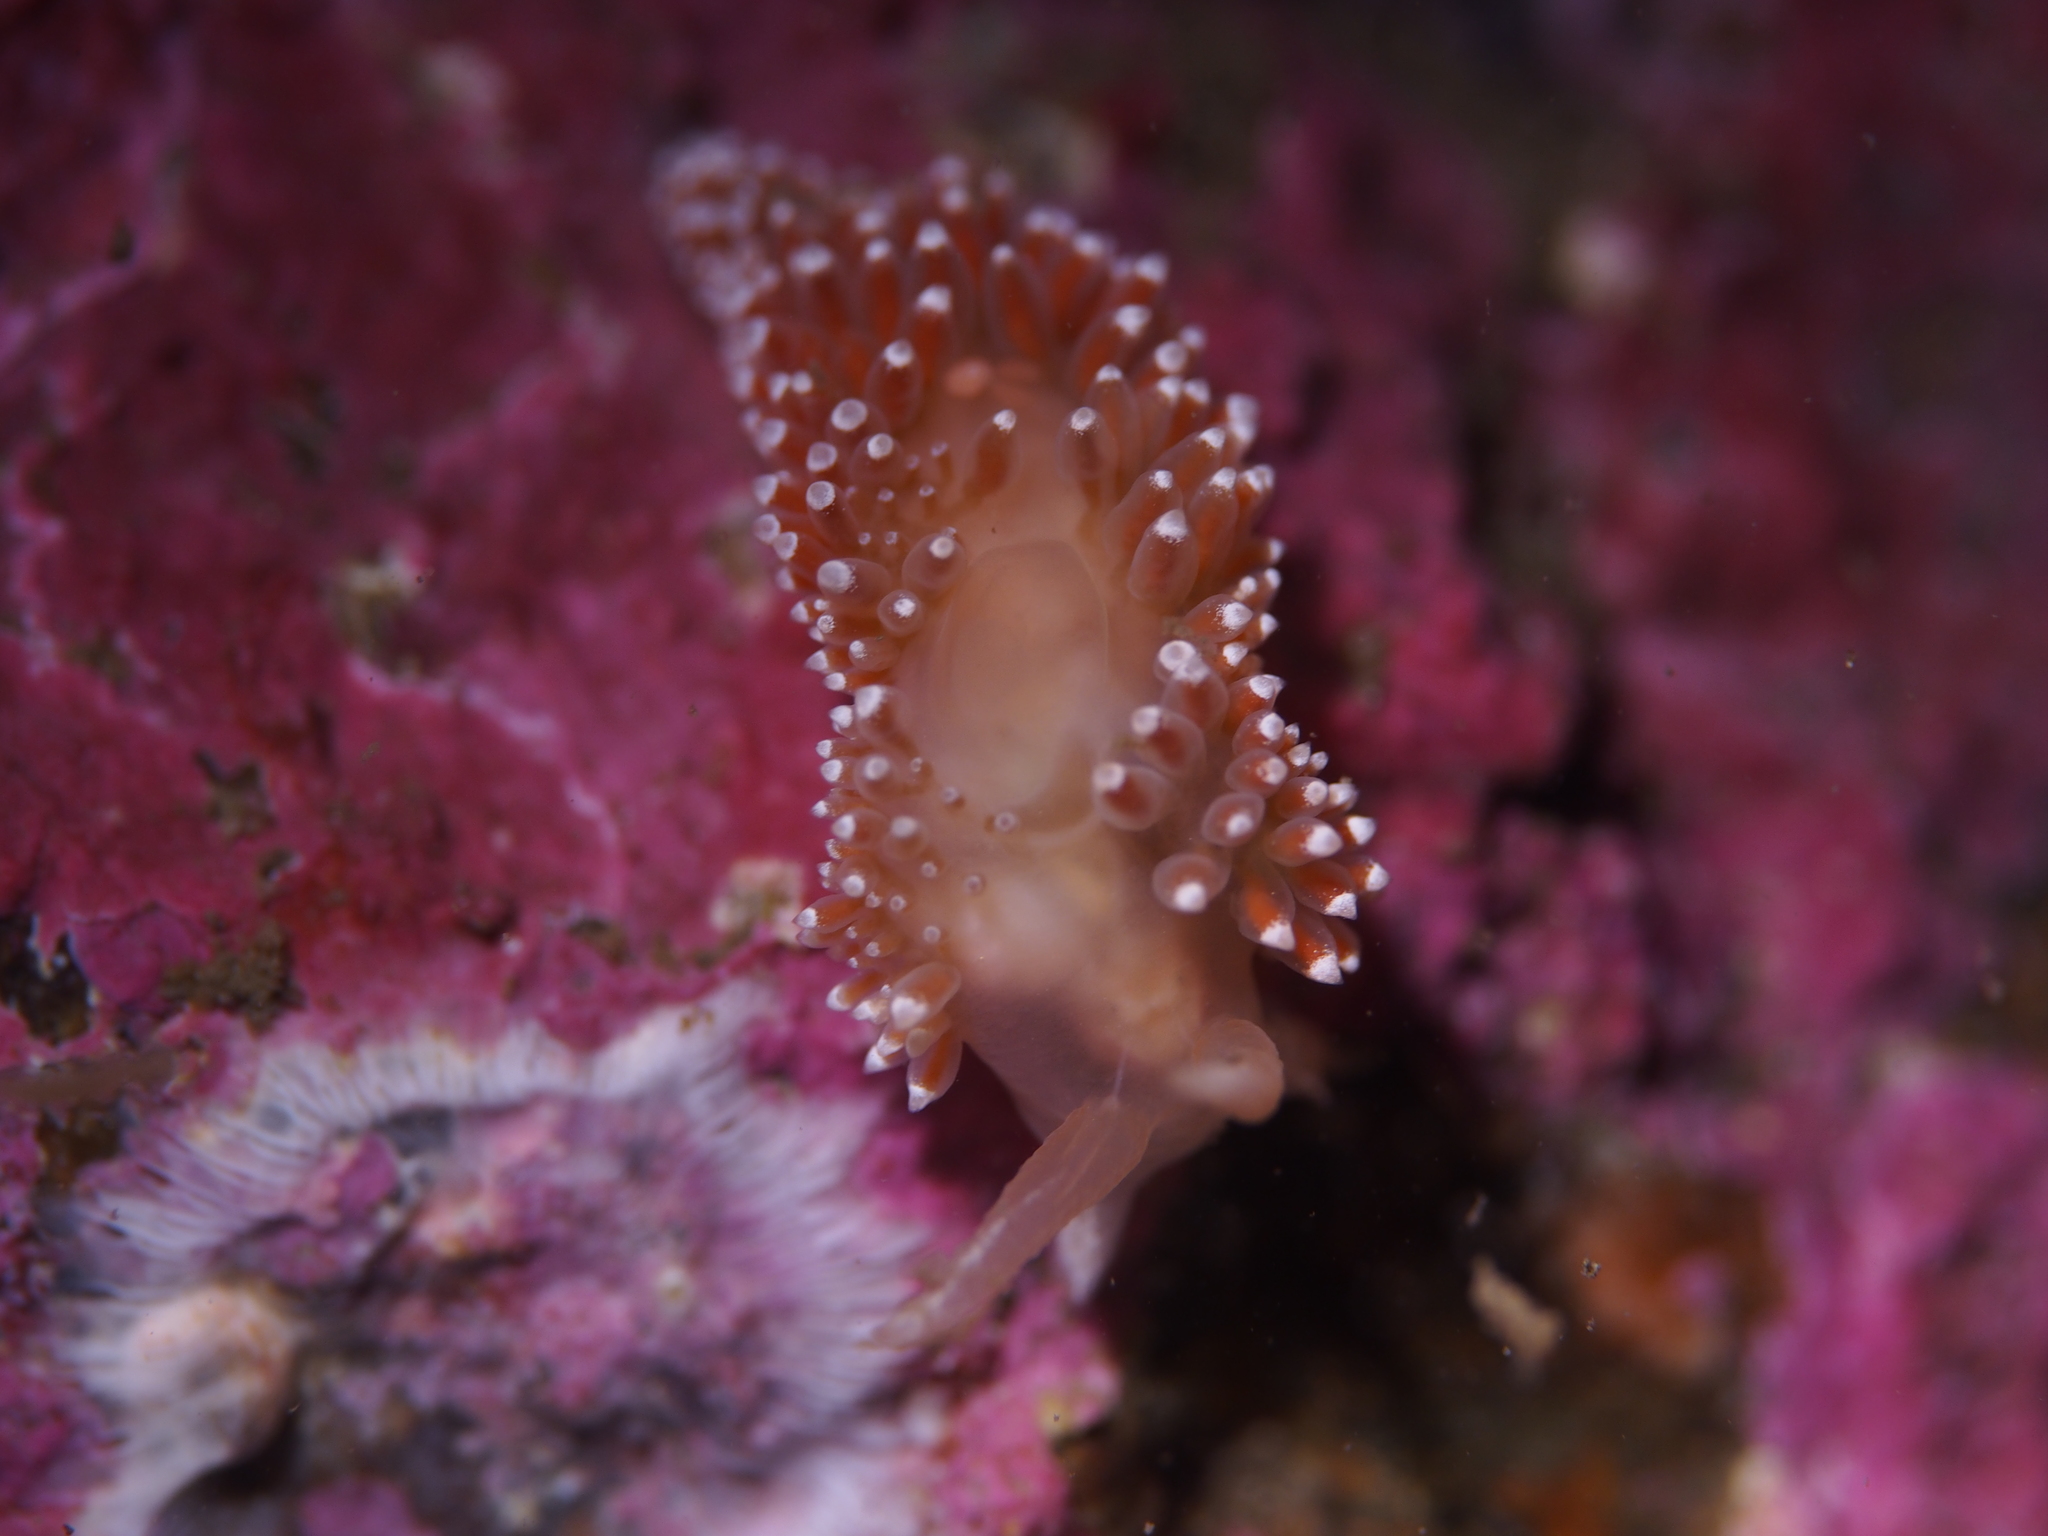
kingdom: Animalia
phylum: Mollusca
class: Gastropoda
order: Nudibranchia
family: Coryphellidae
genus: Coryphella
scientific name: Coryphella verrucosa
